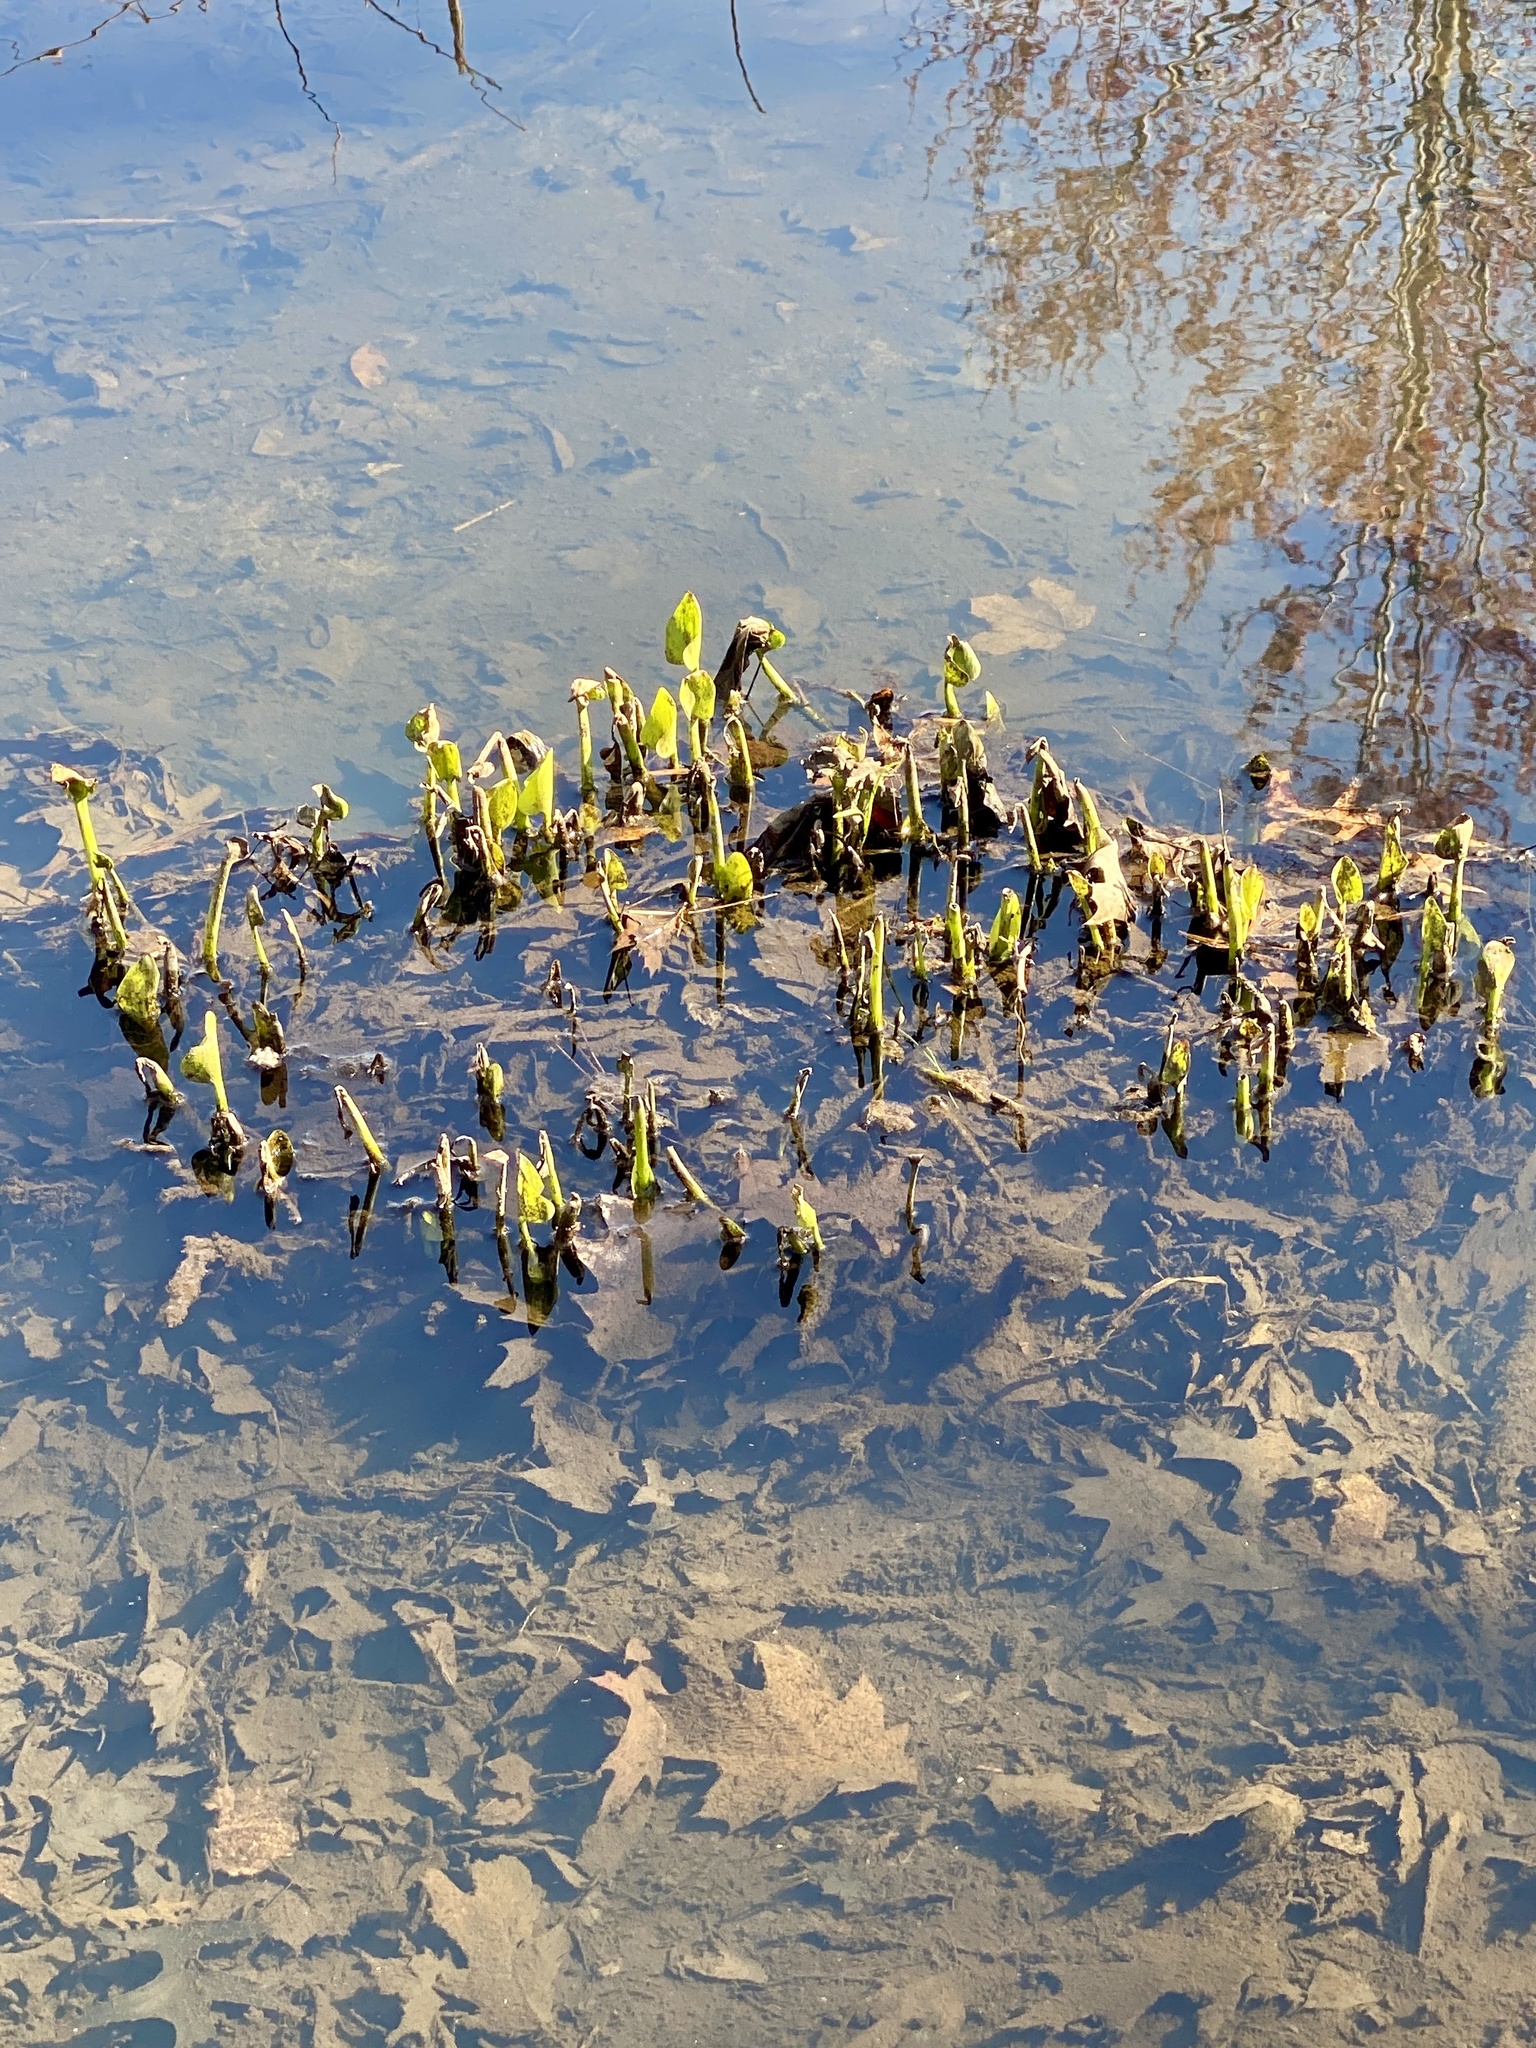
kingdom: Plantae
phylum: Tracheophyta
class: Liliopsida
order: Commelinales
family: Pontederiaceae
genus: Pontederia
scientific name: Pontederia cordata
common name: Pickerelweed
